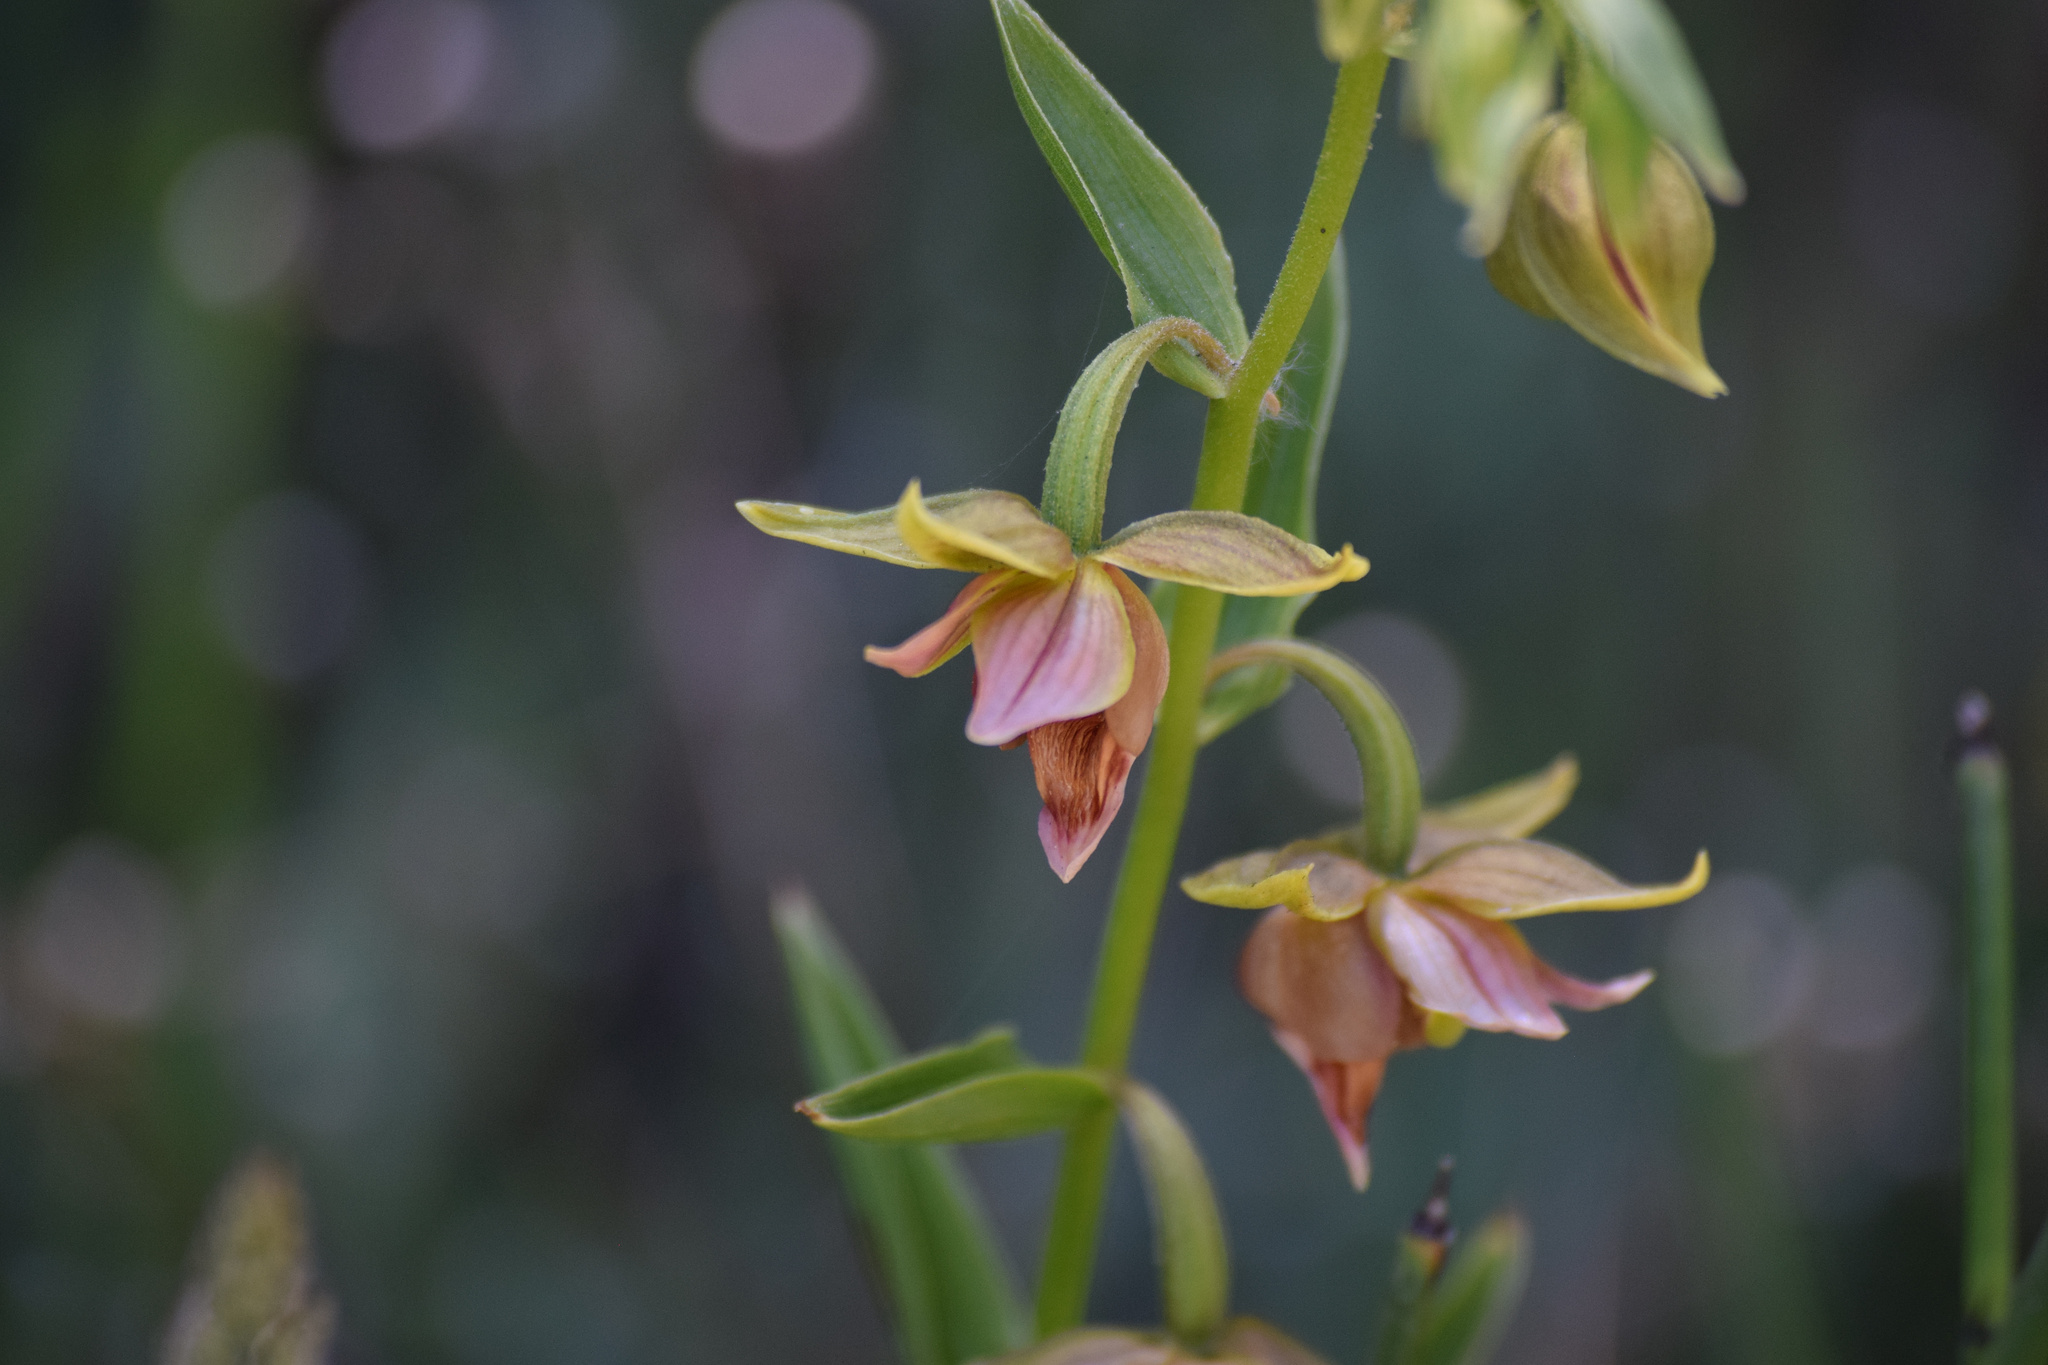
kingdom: Plantae
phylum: Tracheophyta
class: Liliopsida
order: Asparagales
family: Orchidaceae
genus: Epipactis
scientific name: Epipactis gigantea
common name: Chatterbox
